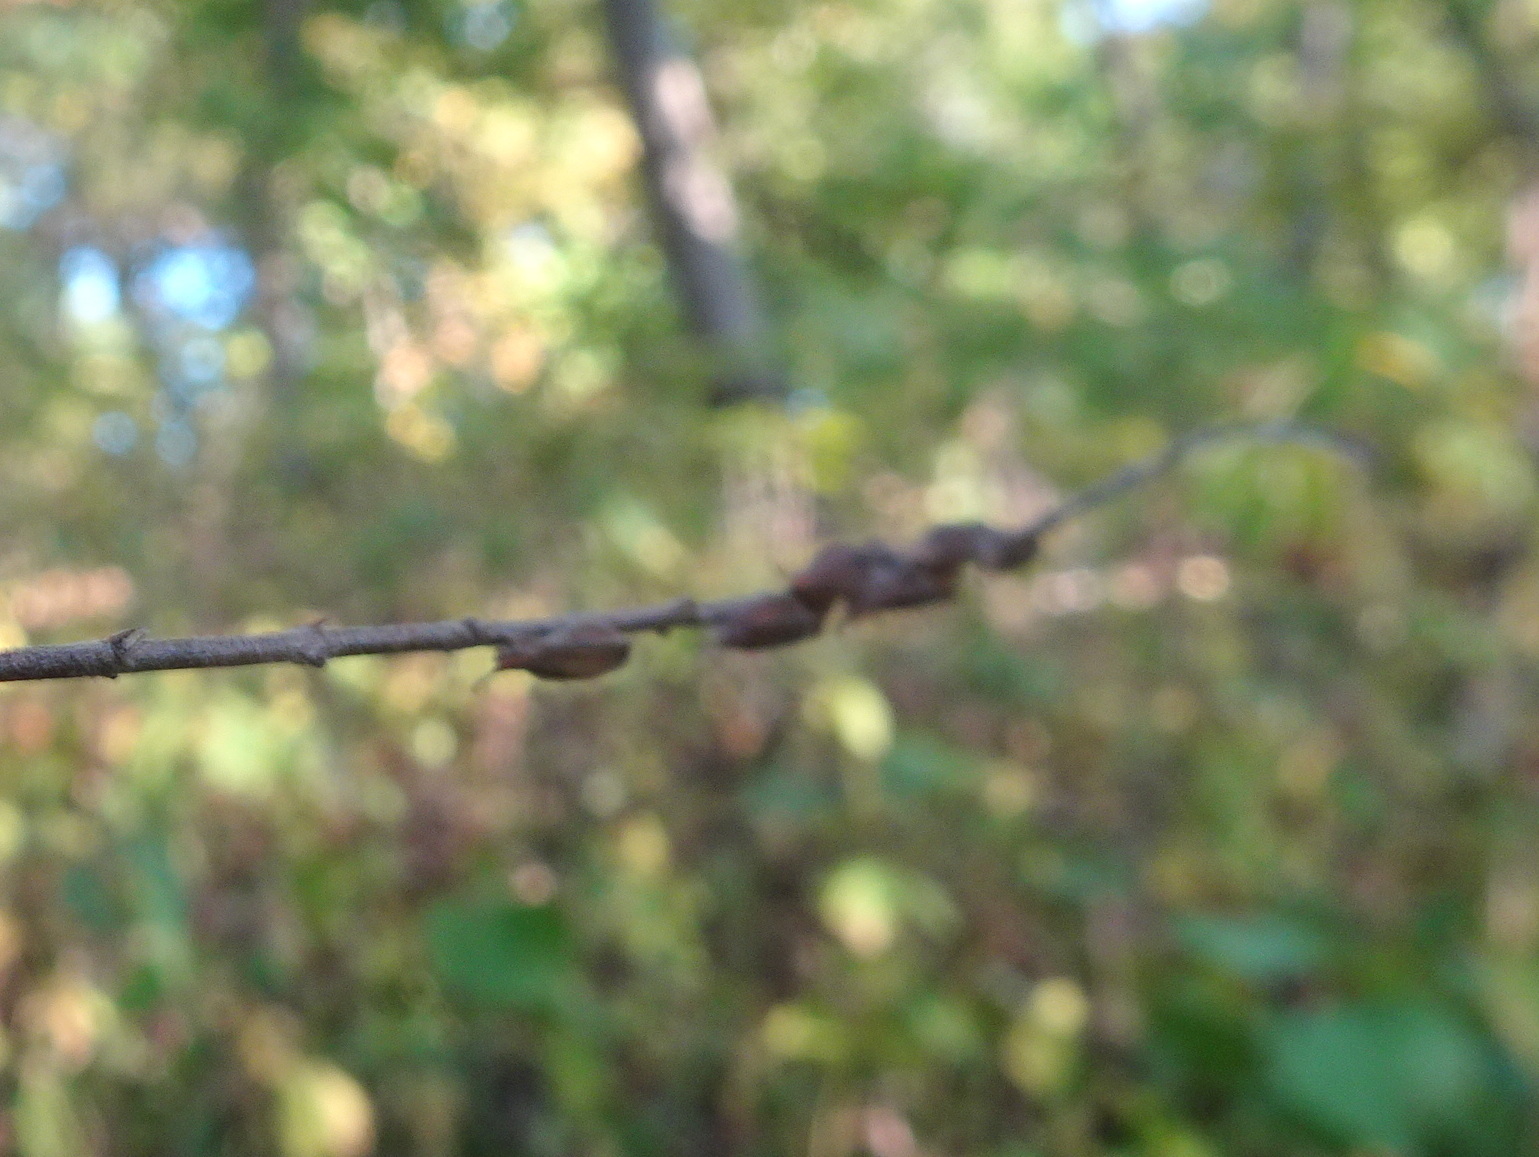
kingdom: Plantae
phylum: Tracheophyta
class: Magnoliopsida
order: Lamiales
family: Phrymaceae
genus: Phryma
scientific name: Phryma leptostachya
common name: American lopseed
